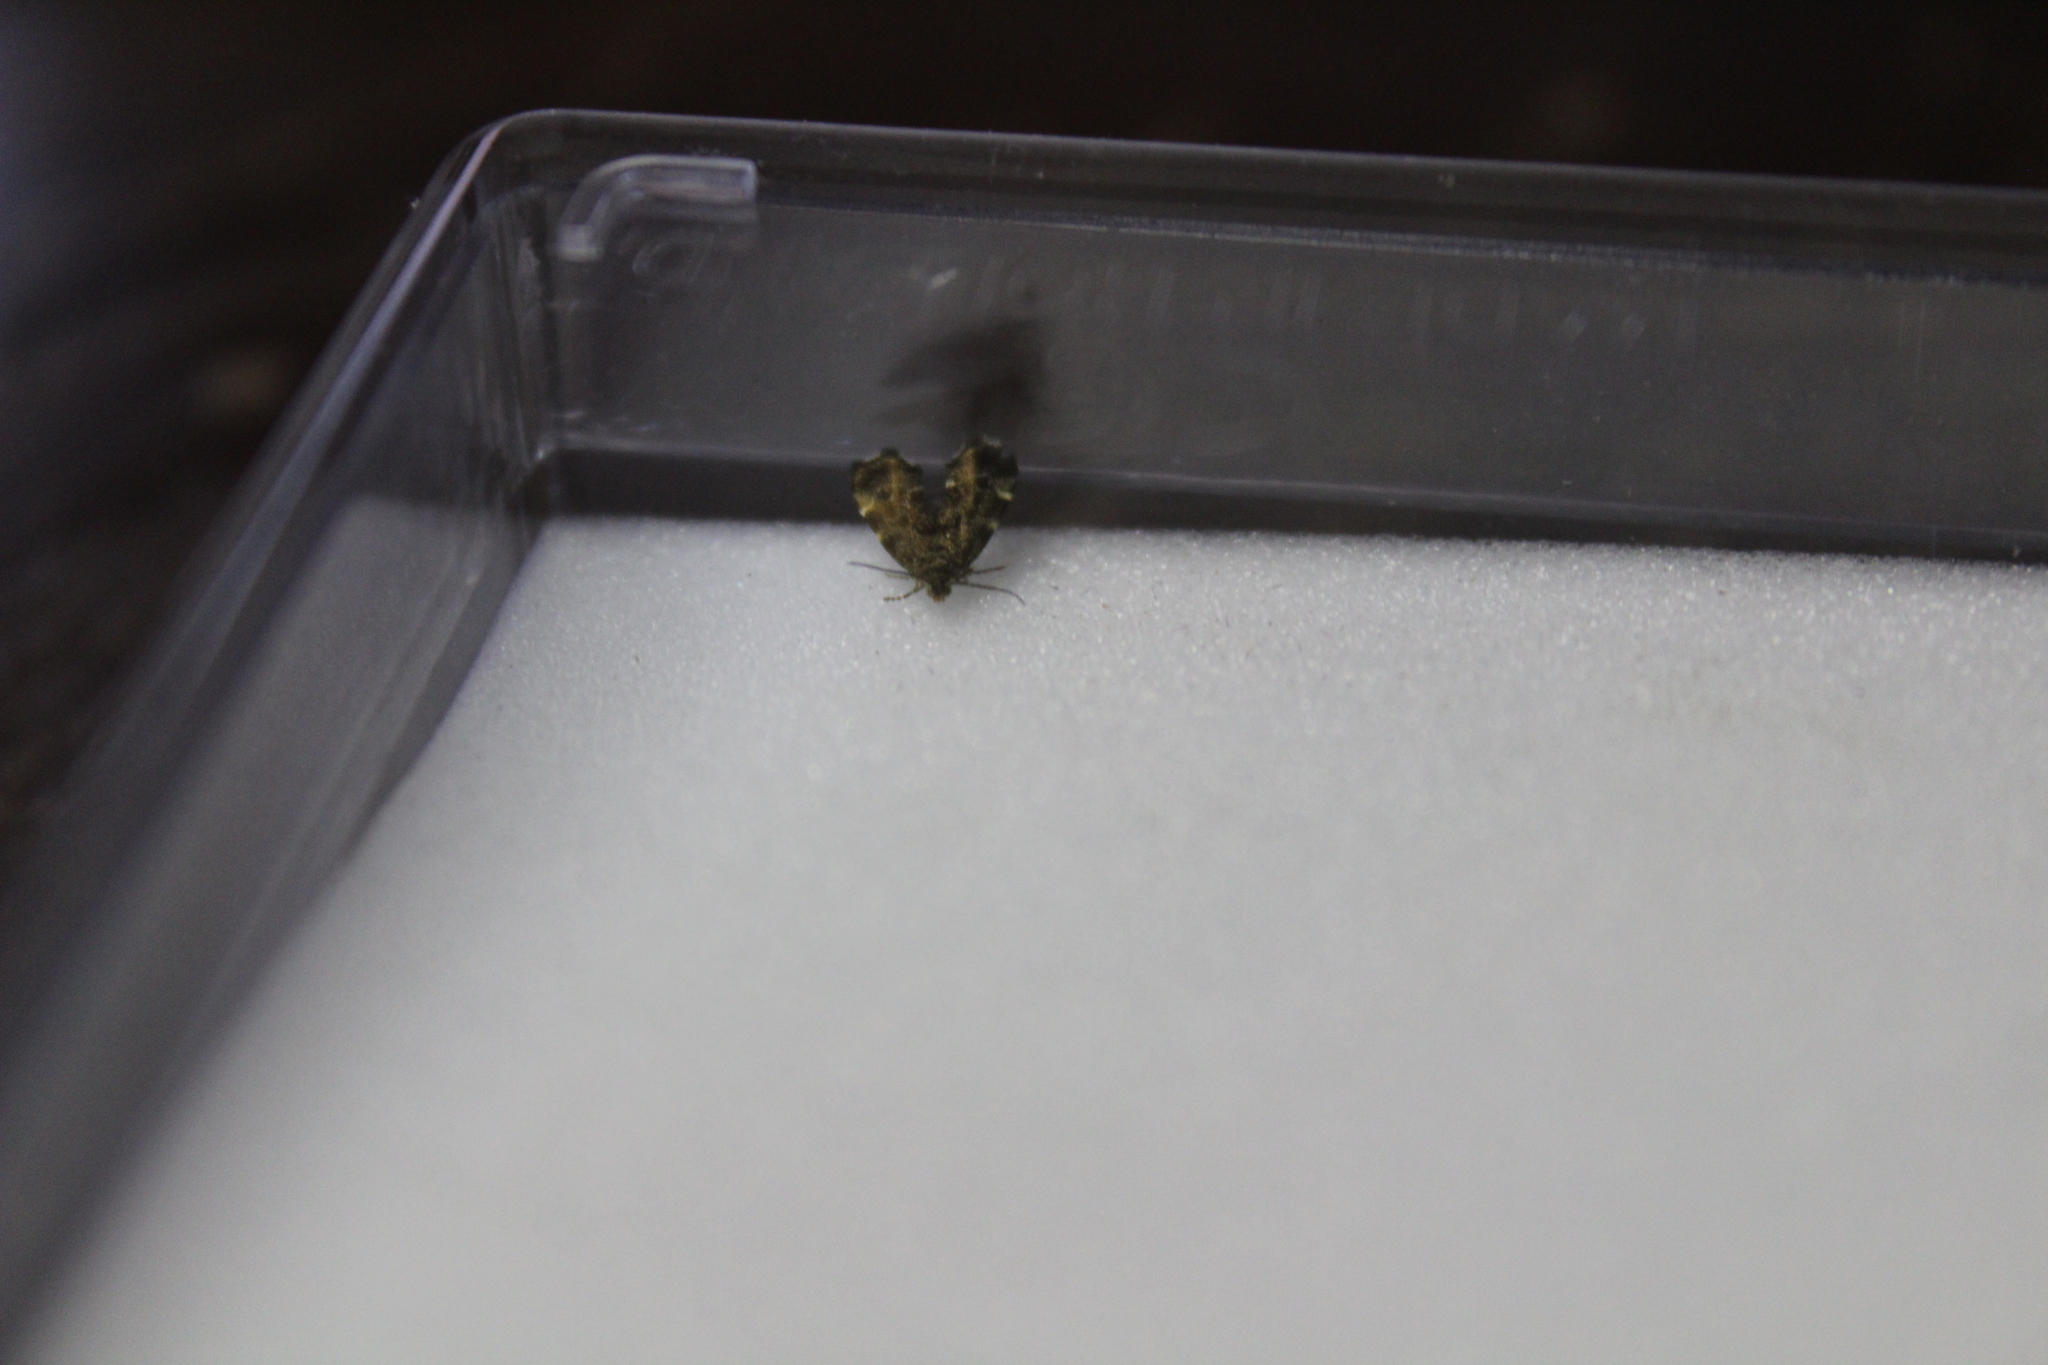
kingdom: Animalia
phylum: Arthropoda
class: Insecta
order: Lepidoptera
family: Choreutidae
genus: Anthophila
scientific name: Anthophila fabriciana
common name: Nettle-tap
